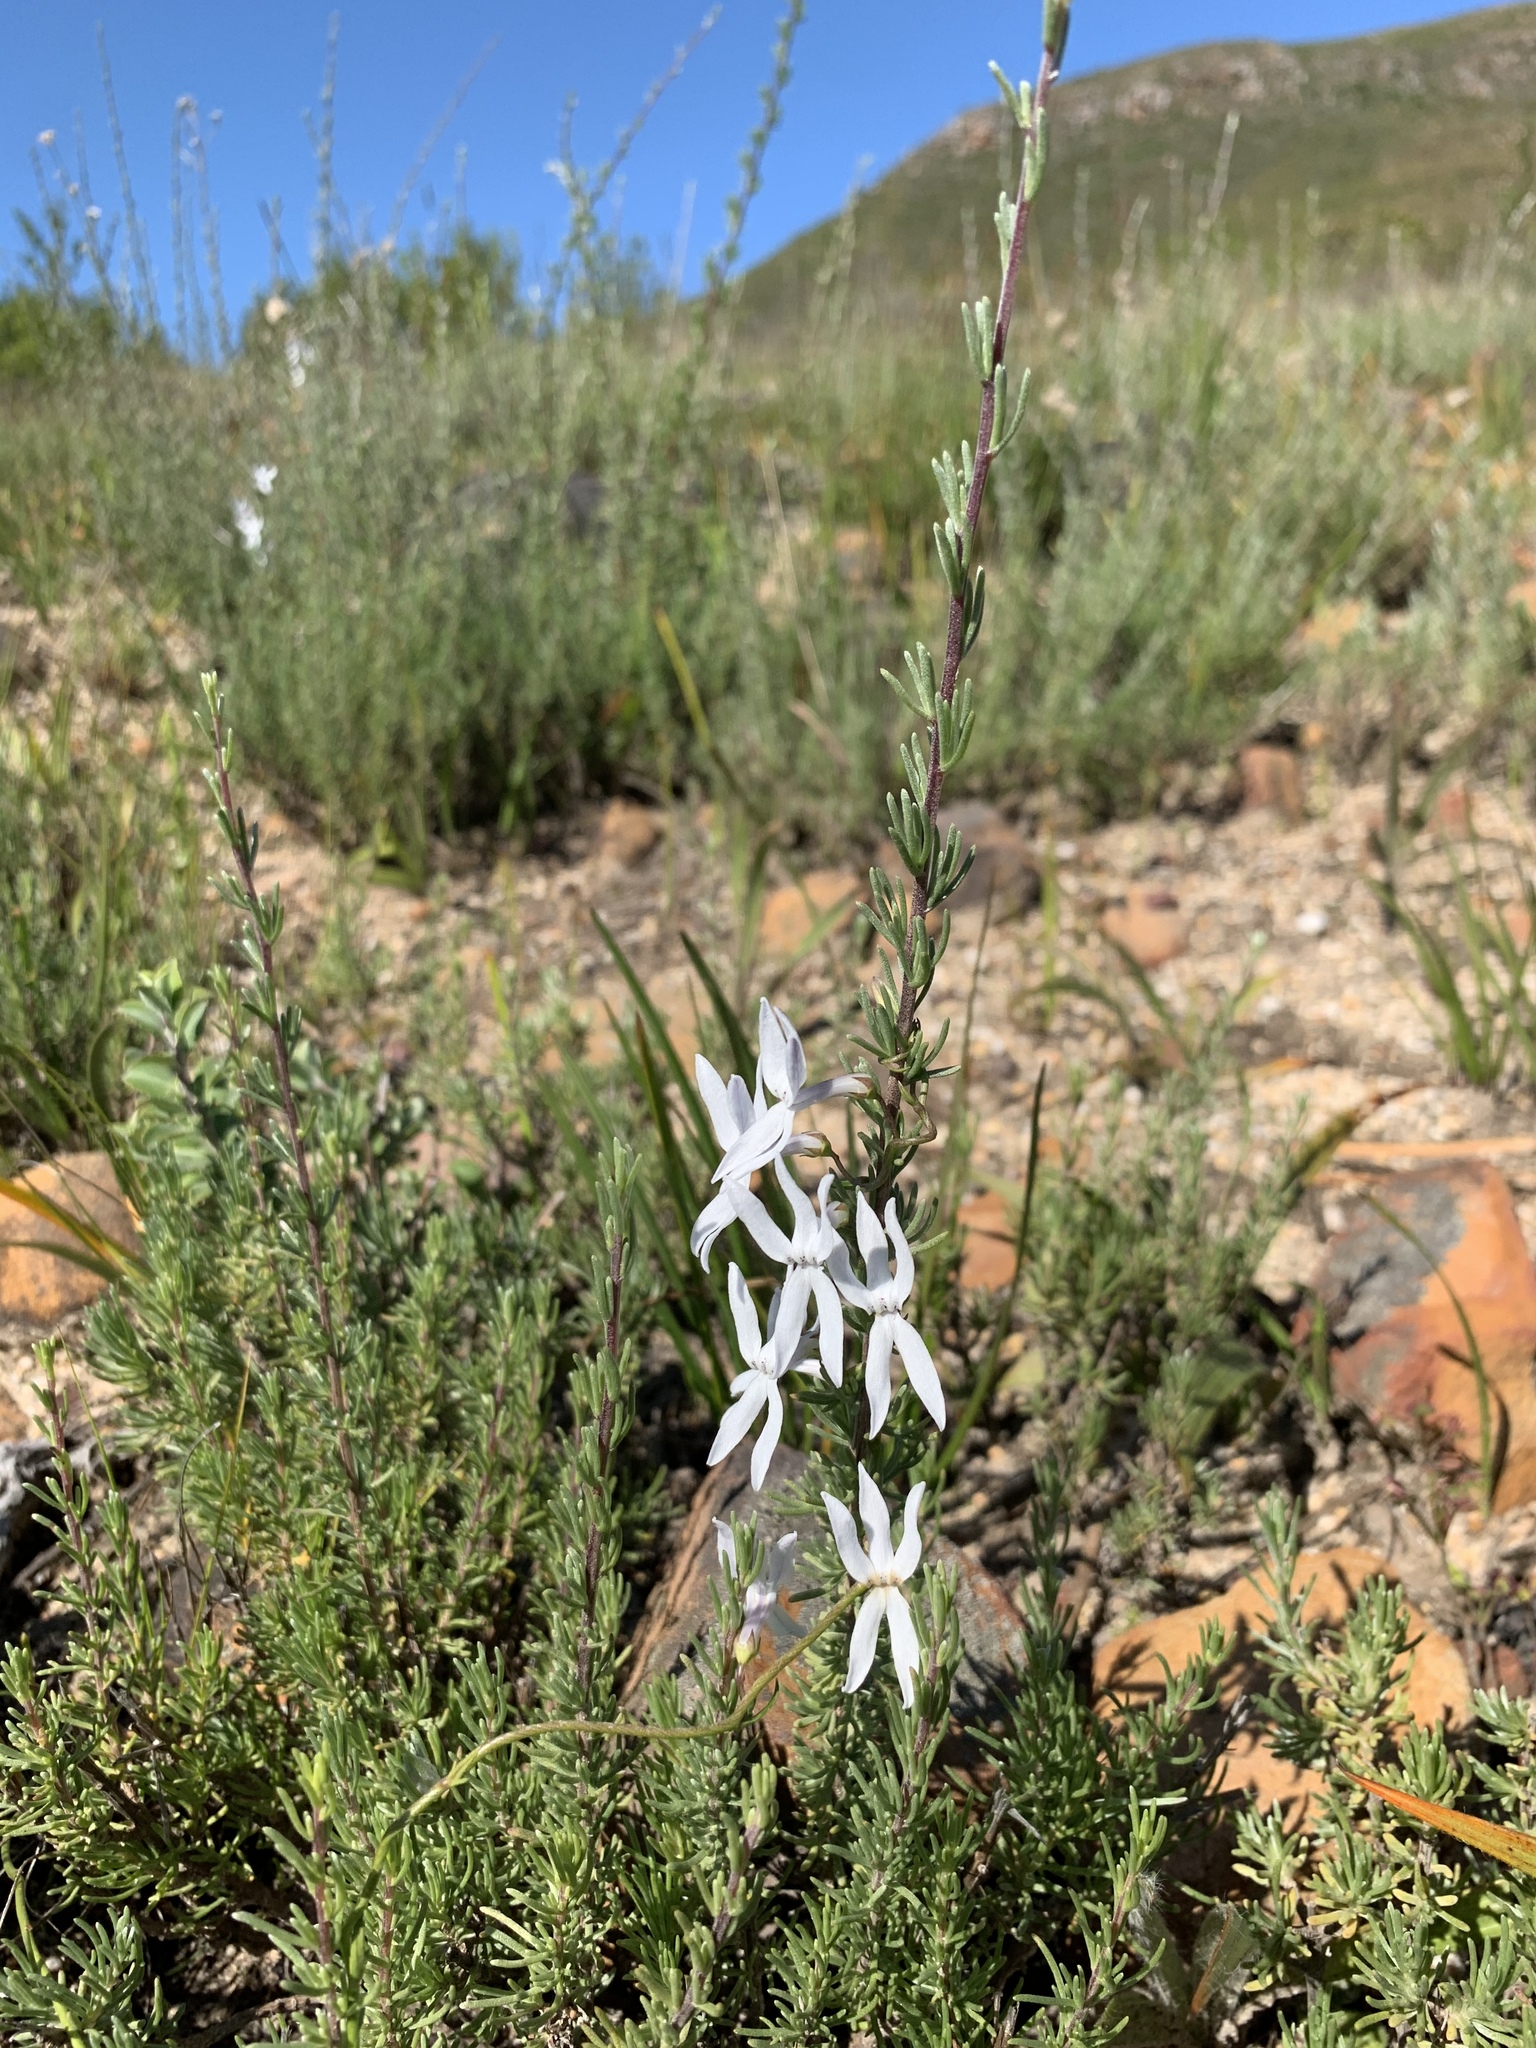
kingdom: Plantae
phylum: Tracheophyta
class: Magnoliopsida
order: Asterales
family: Campanulaceae
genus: Cyphia
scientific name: Cyphia volubilis
